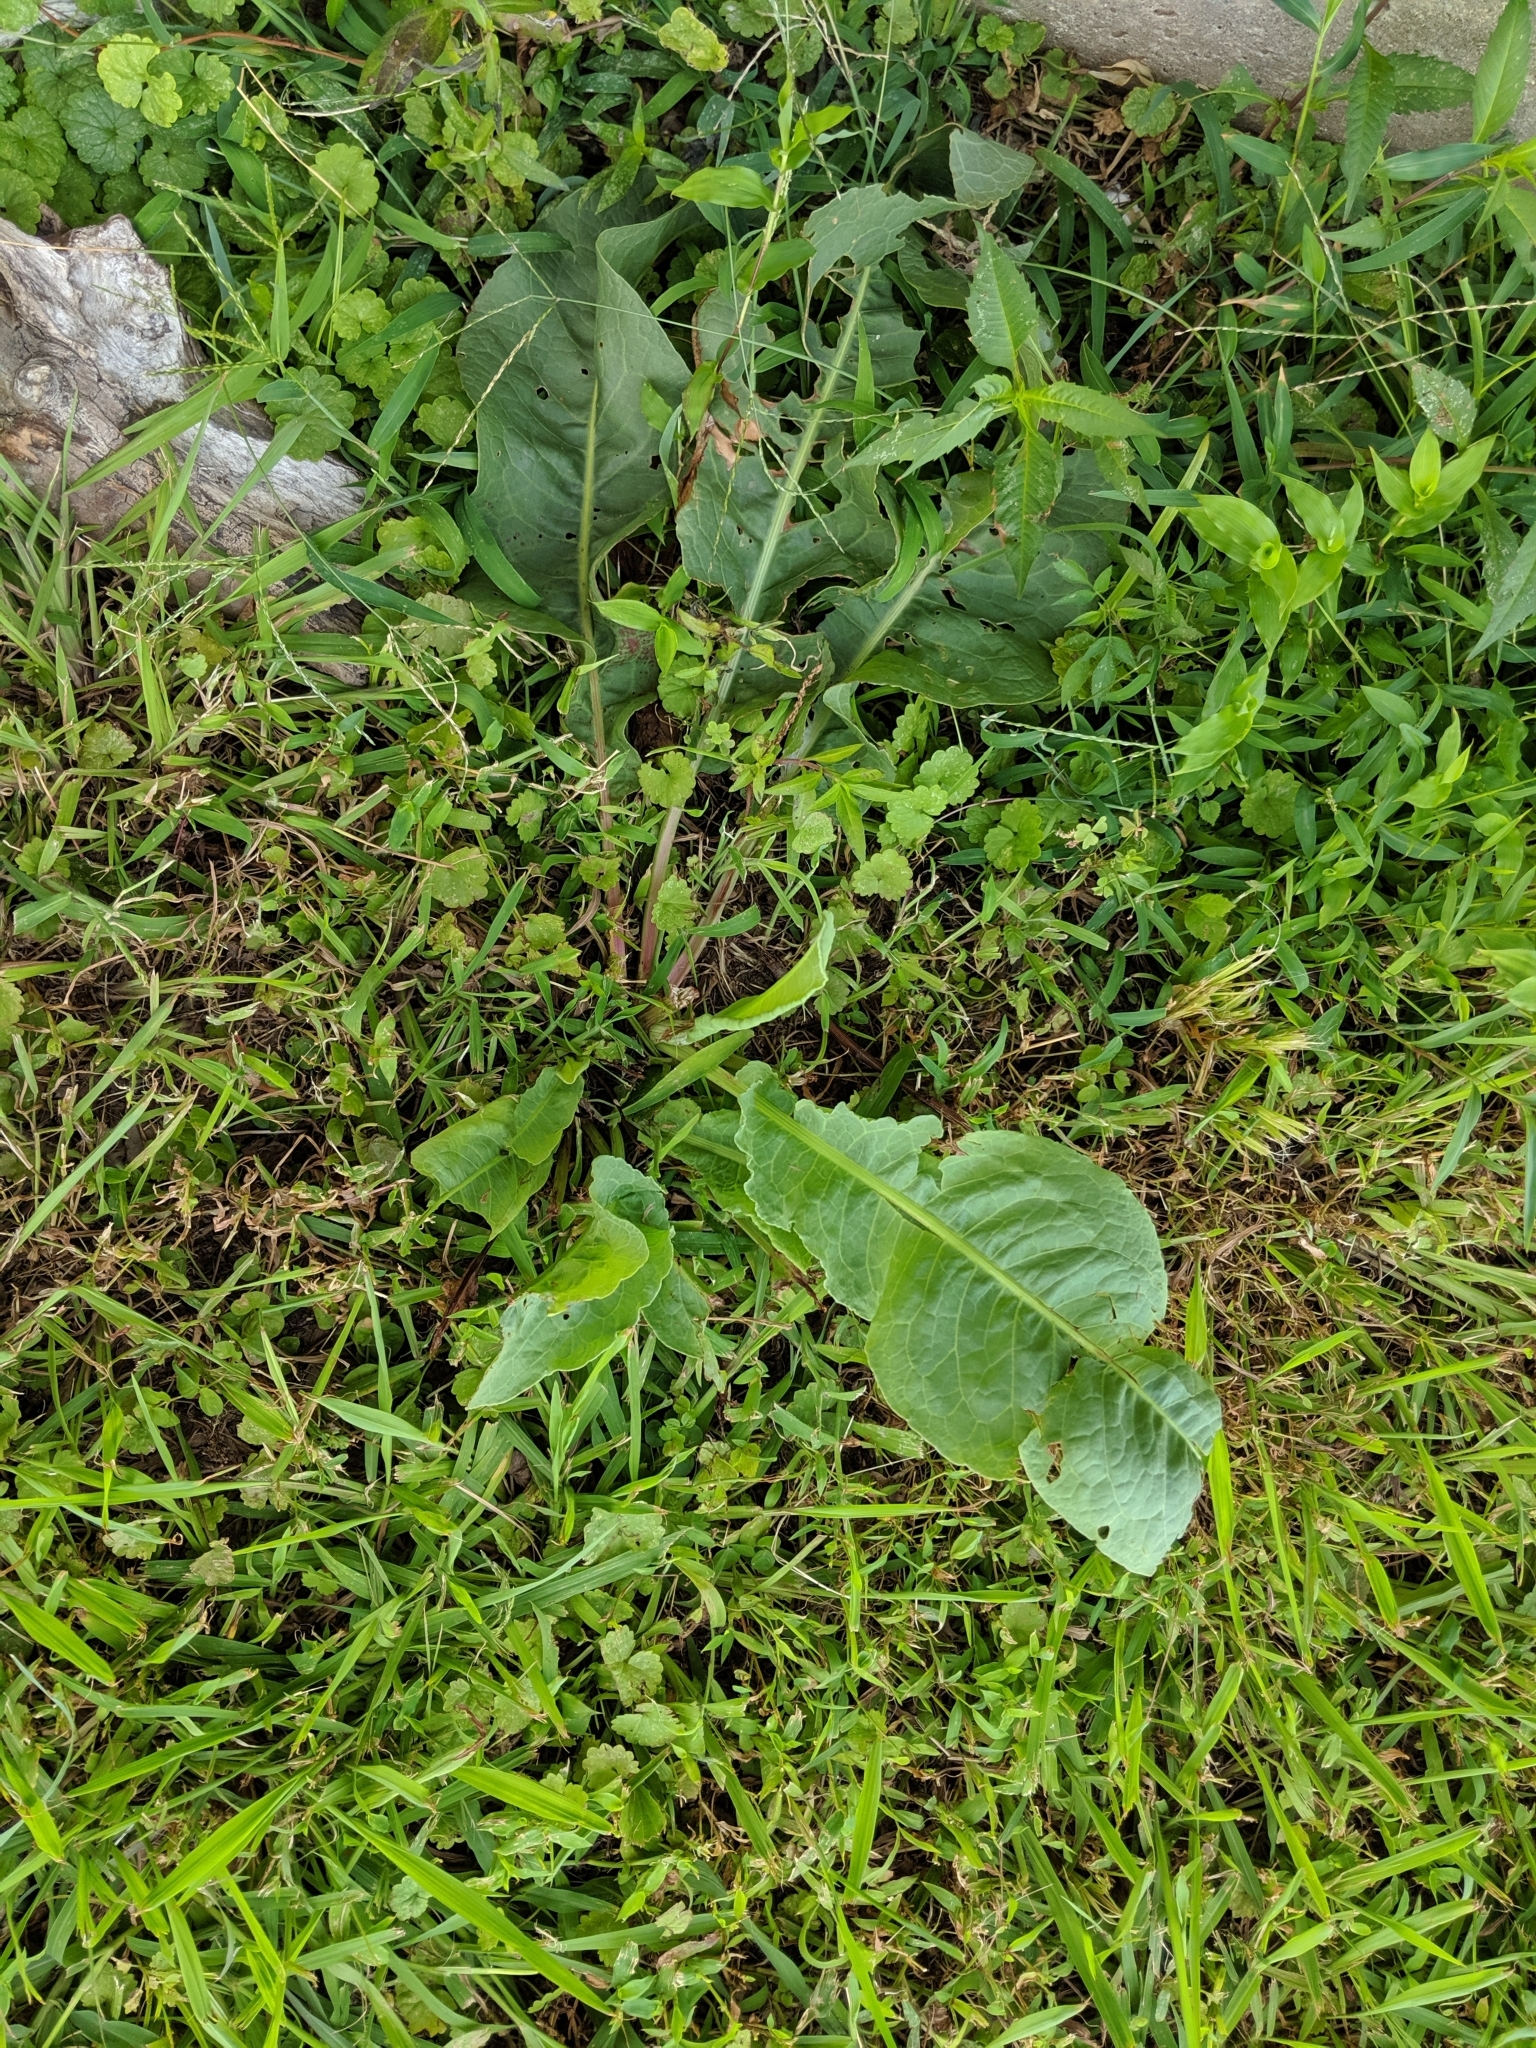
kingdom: Plantae
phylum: Tracheophyta
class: Magnoliopsida
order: Caryophyllales
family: Polygonaceae
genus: Rumex
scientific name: Rumex crispus
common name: Curled dock
